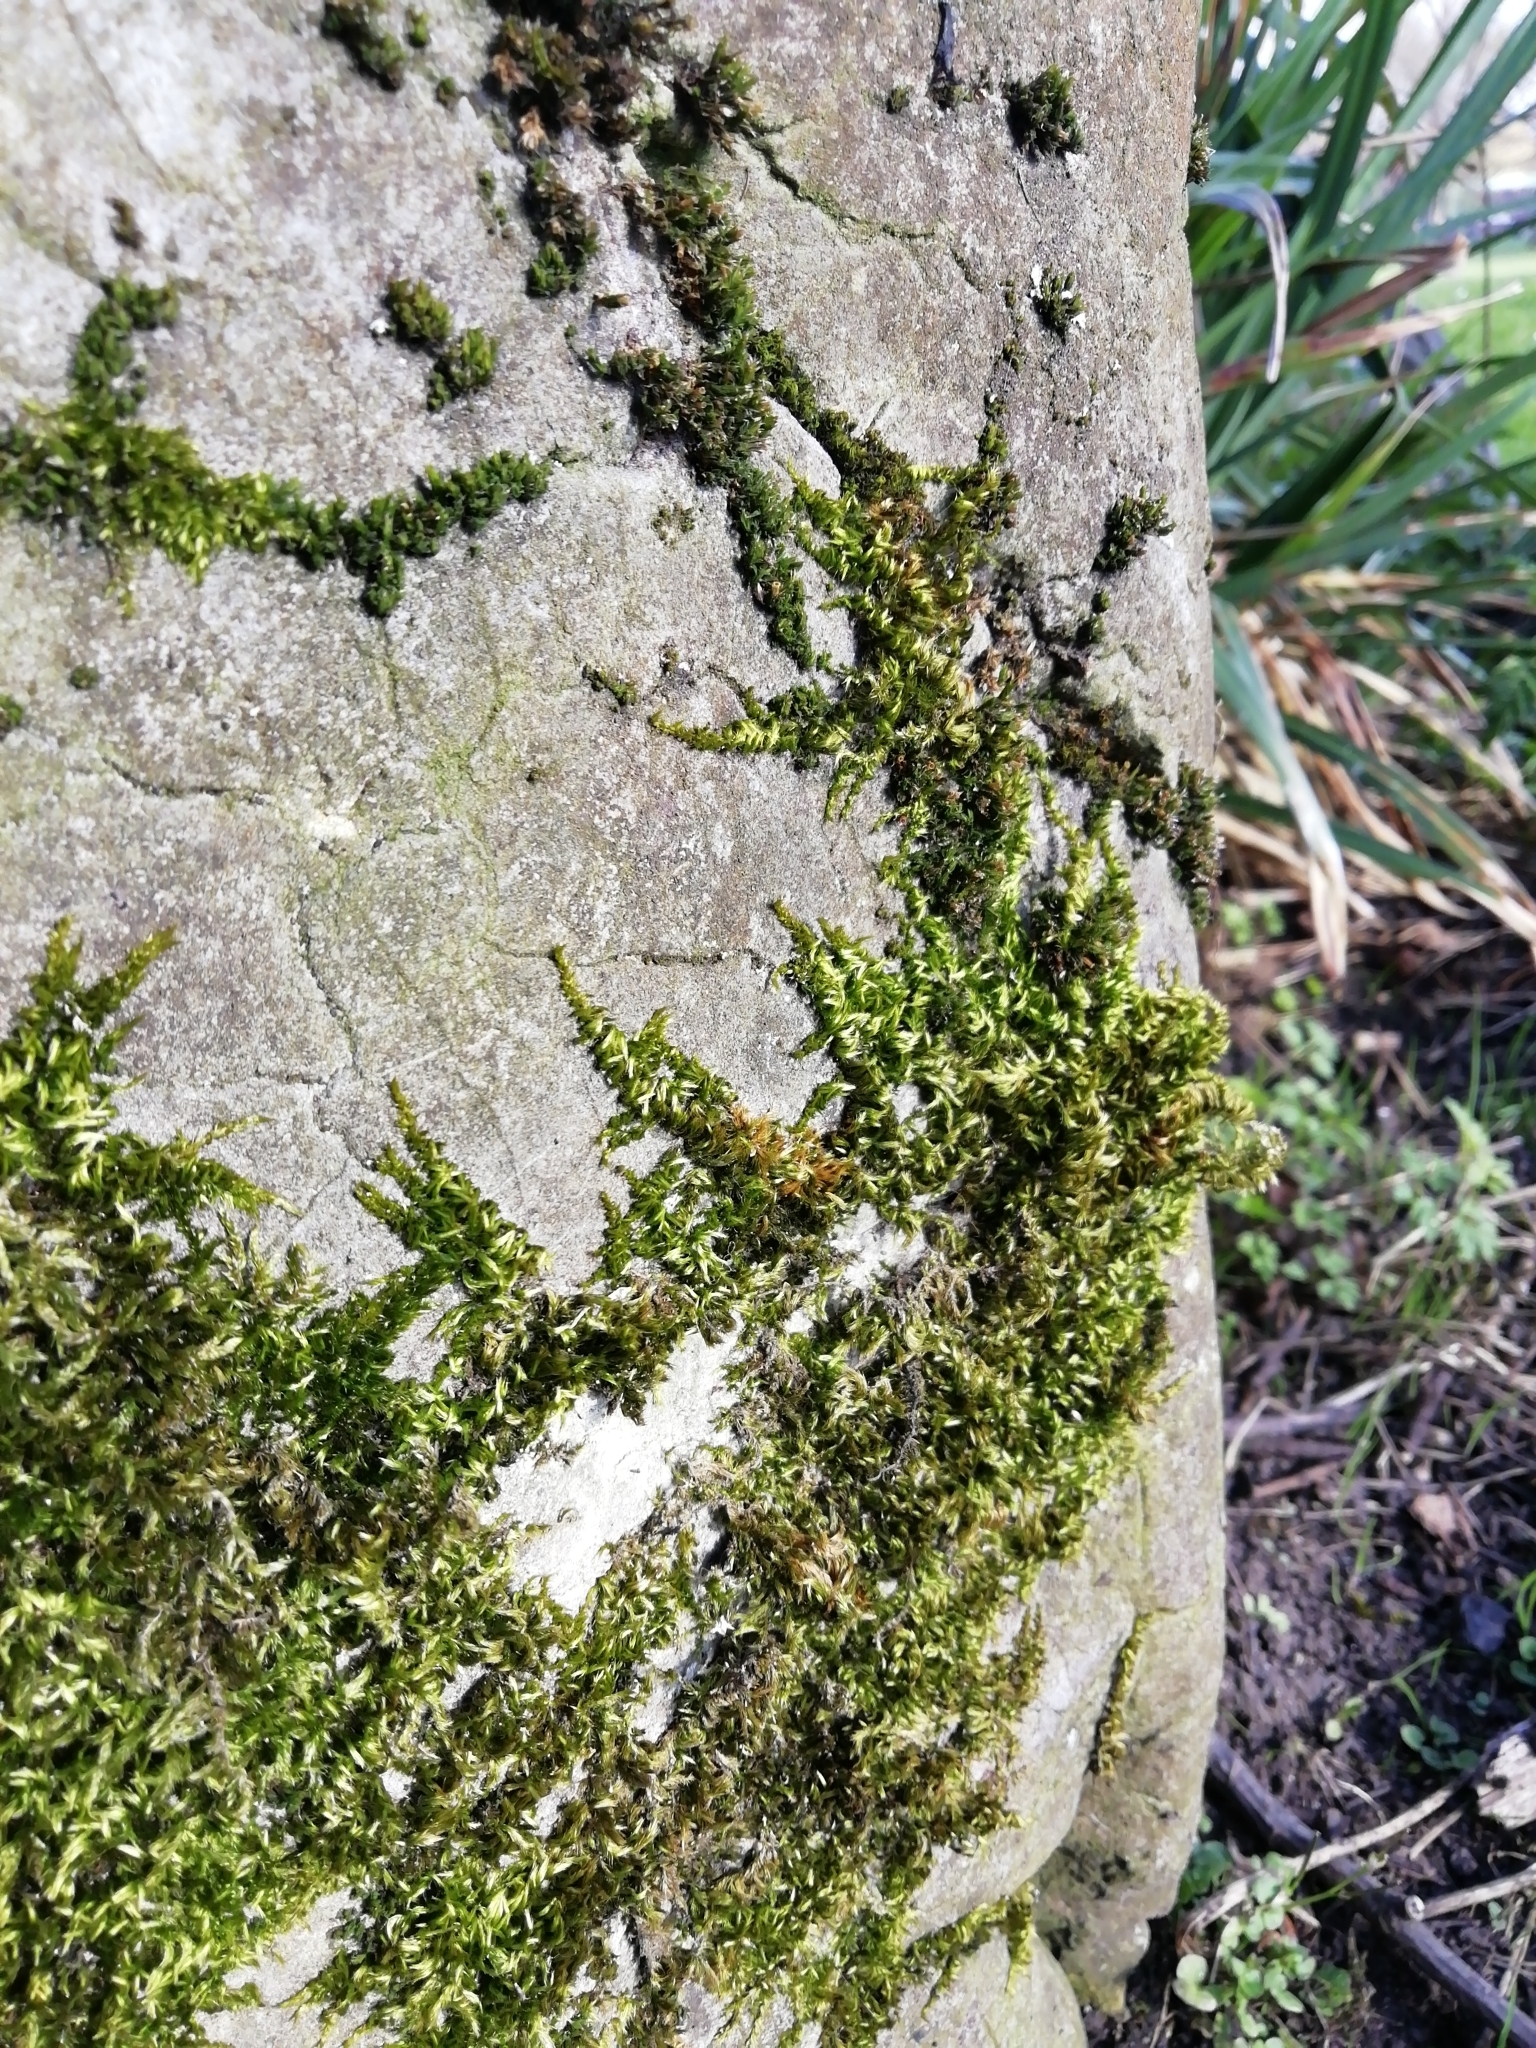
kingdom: Plantae
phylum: Bryophyta
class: Bryopsida
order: Hypnales
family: Brachytheciaceae
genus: Homalothecium
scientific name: Homalothecium sericeum
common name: Silky wall feather-moss
